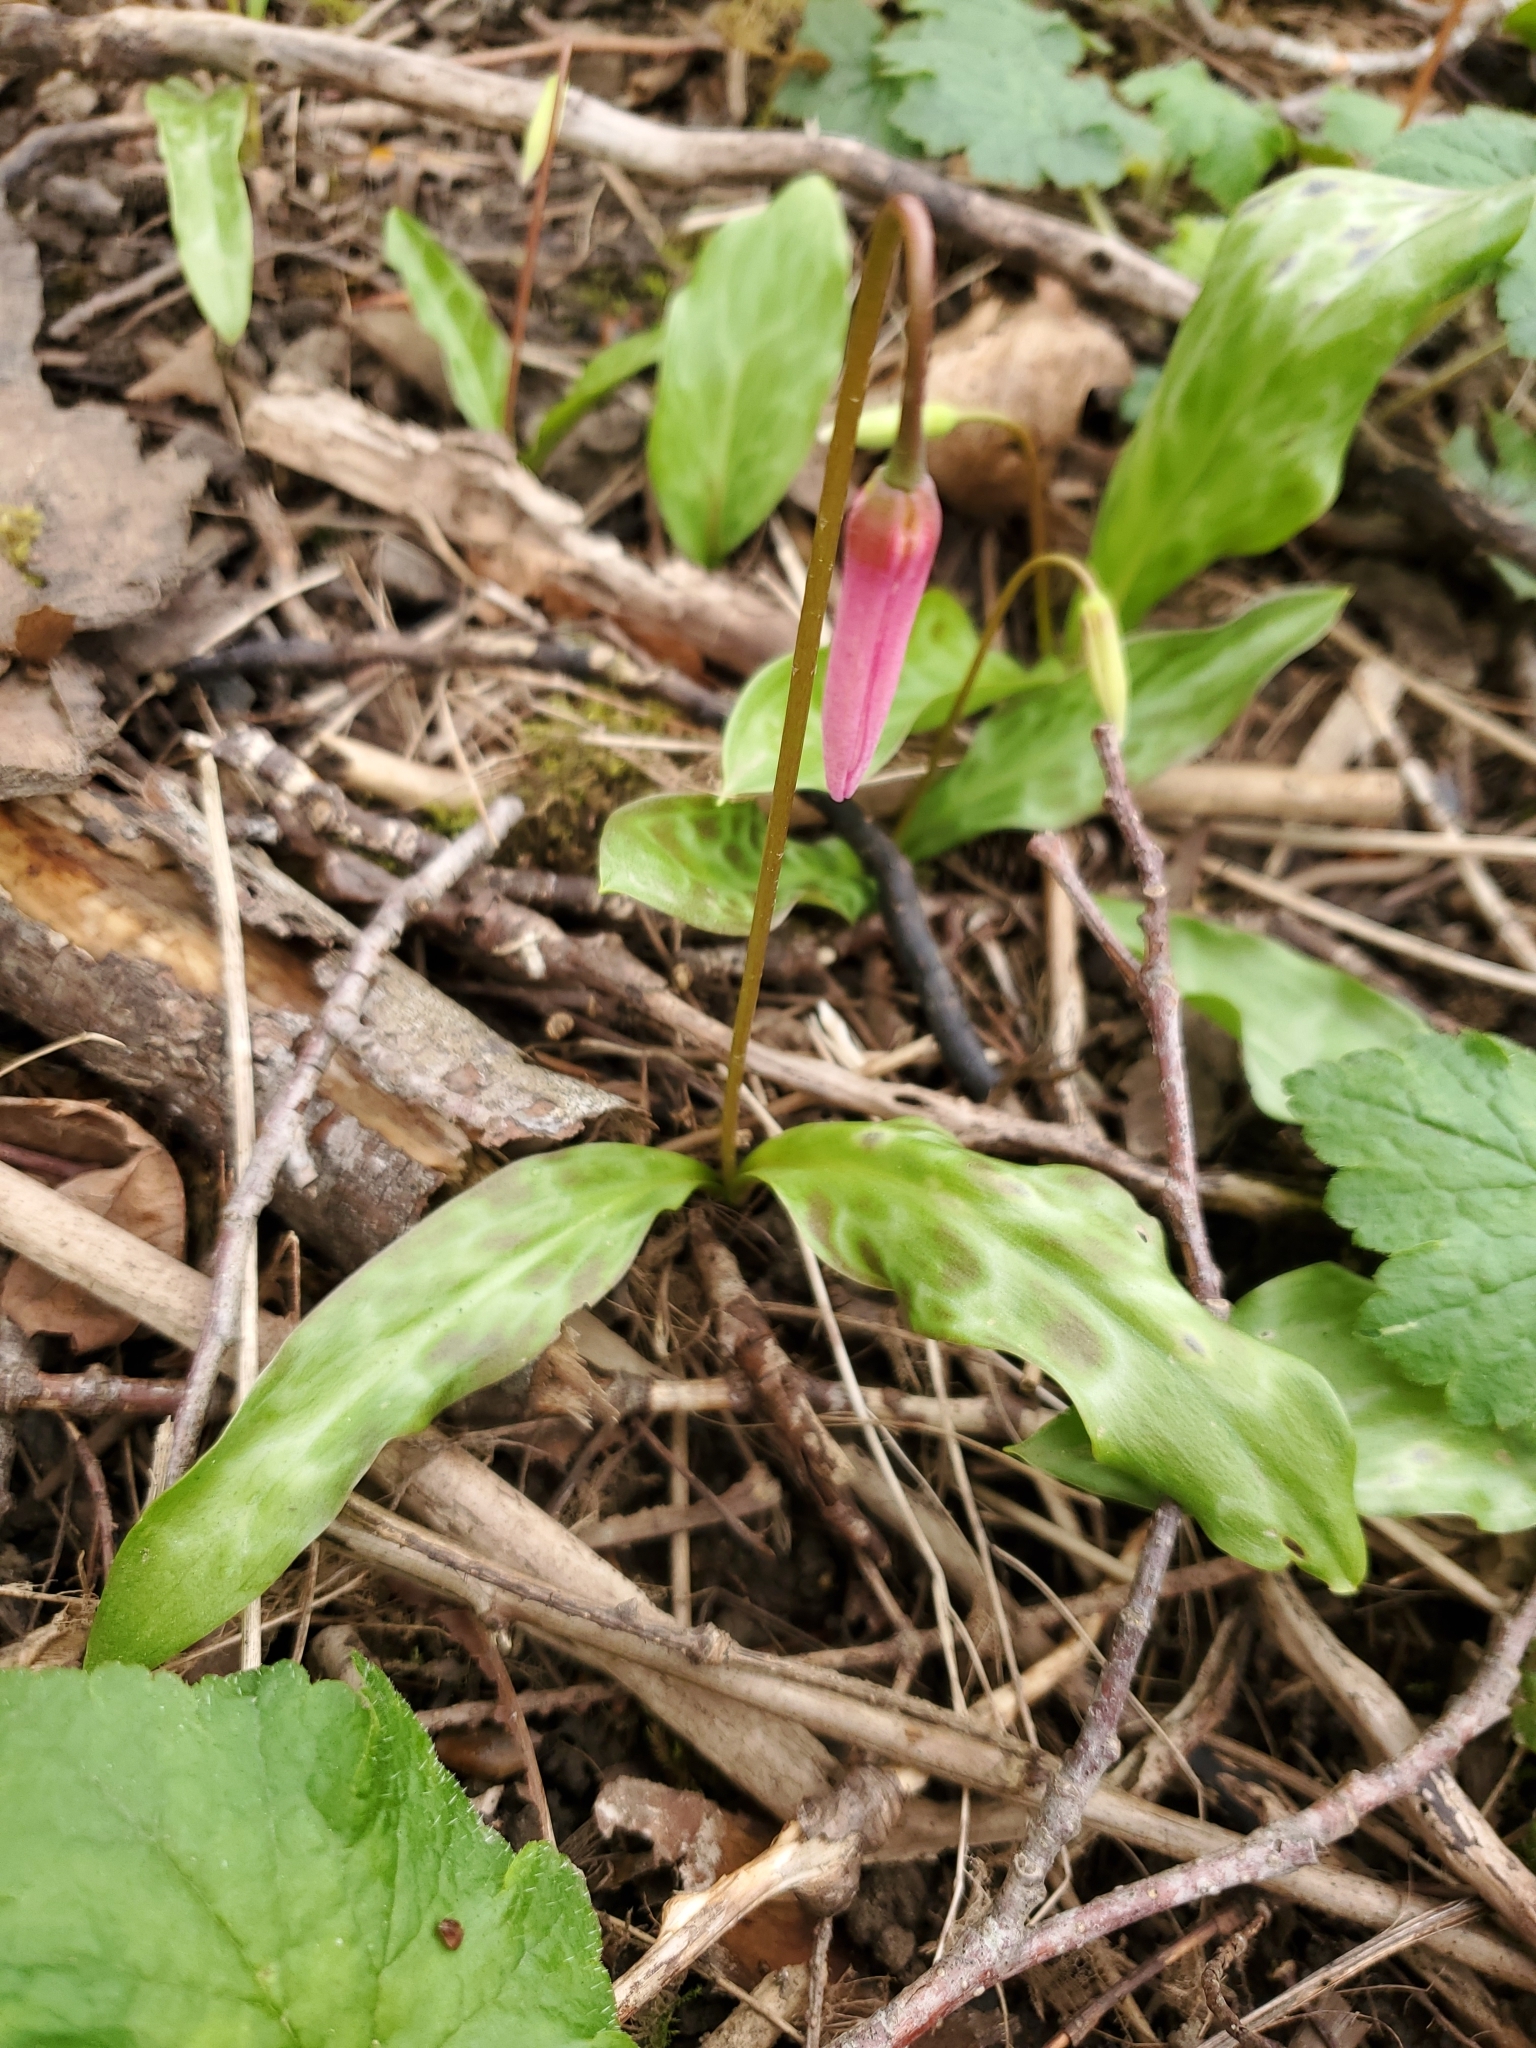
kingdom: Plantae
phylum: Tracheophyta
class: Liliopsida
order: Liliales
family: Liliaceae
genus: Erythronium
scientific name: Erythronium revolutum
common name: Pink fawn-lily
